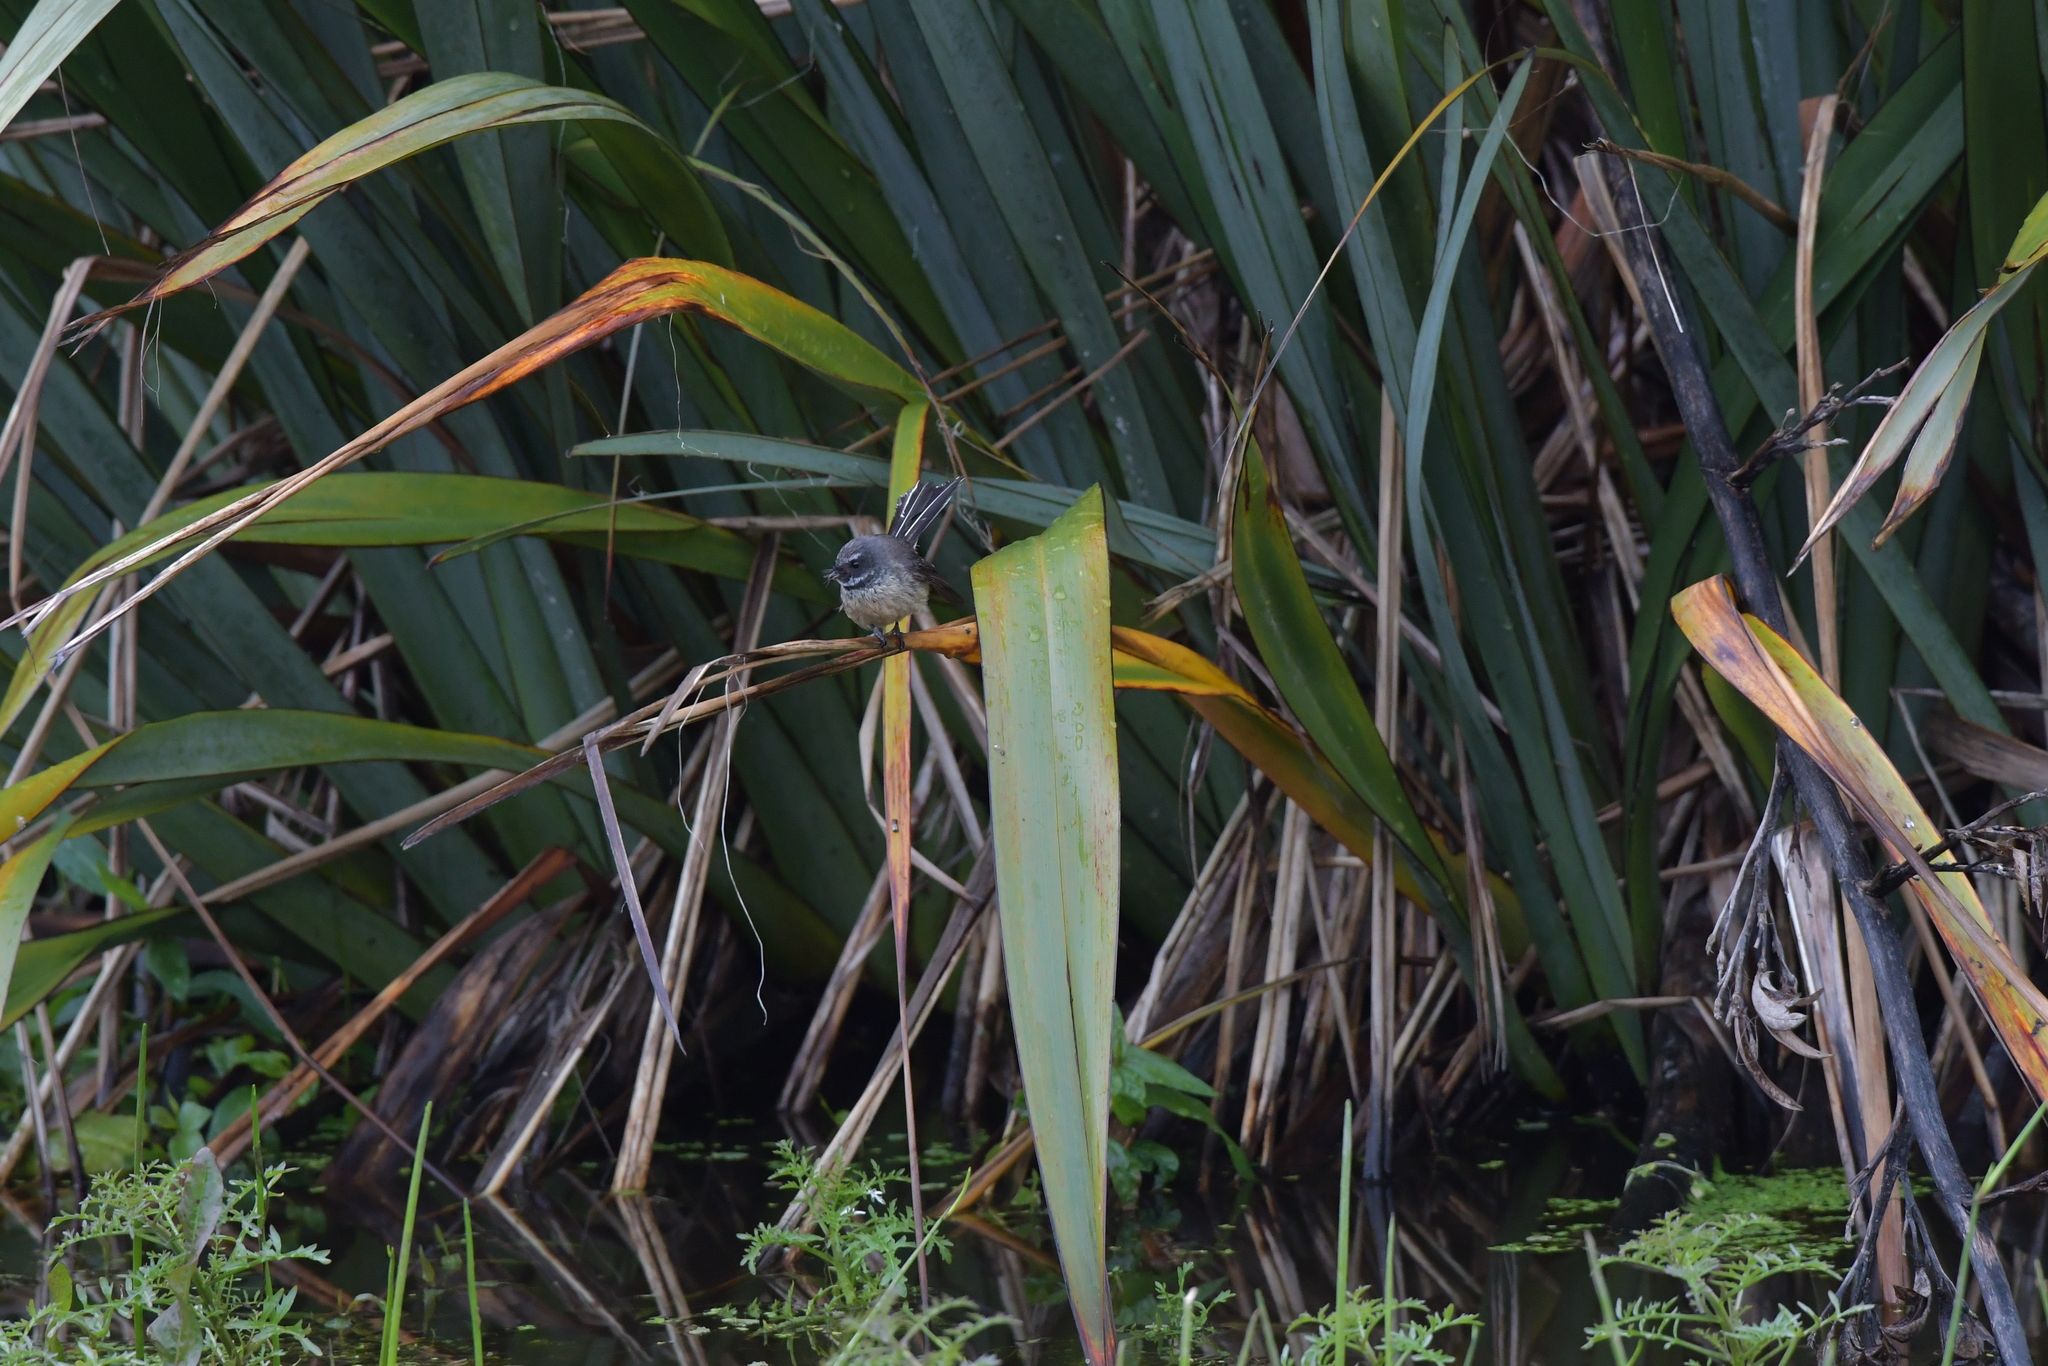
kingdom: Animalia
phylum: Chordata
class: Aves
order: Passeriformes
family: Rhipiduridae
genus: Rhipidura
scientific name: Rhipidura fuliginosa
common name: New zealand fantail
